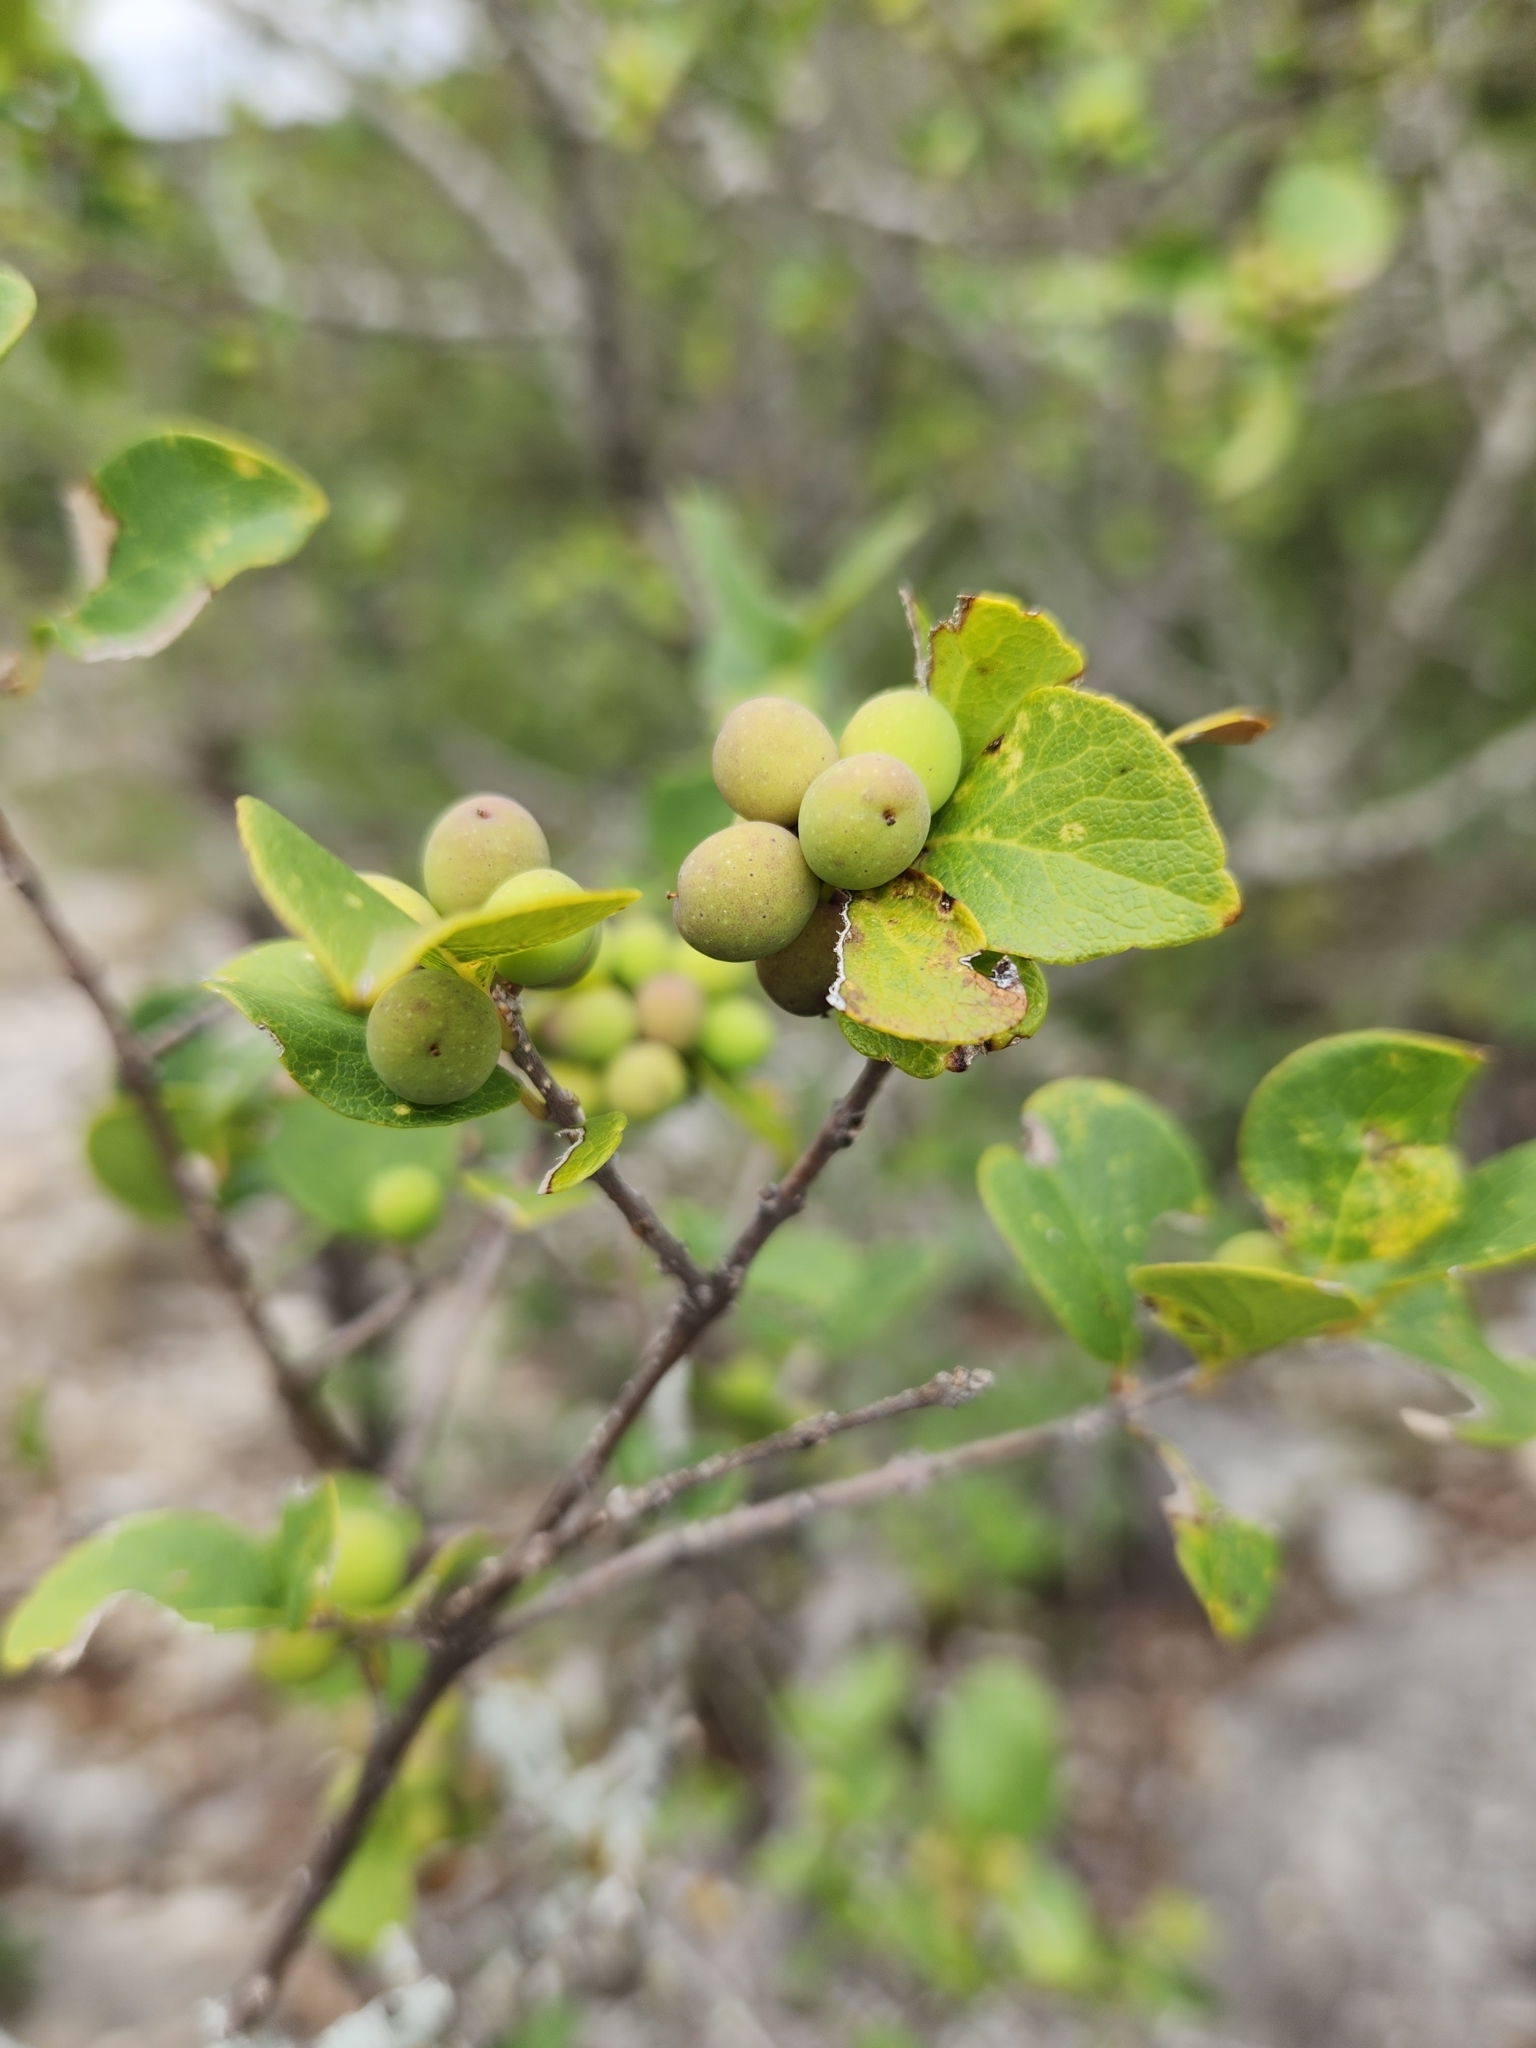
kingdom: Plantae
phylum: Tracheophyta
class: Magnoliopsida
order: Lamiales
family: Oleaceae
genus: Forestiera
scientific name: Forestiera reticulata
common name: Netleaf swamp-privet
